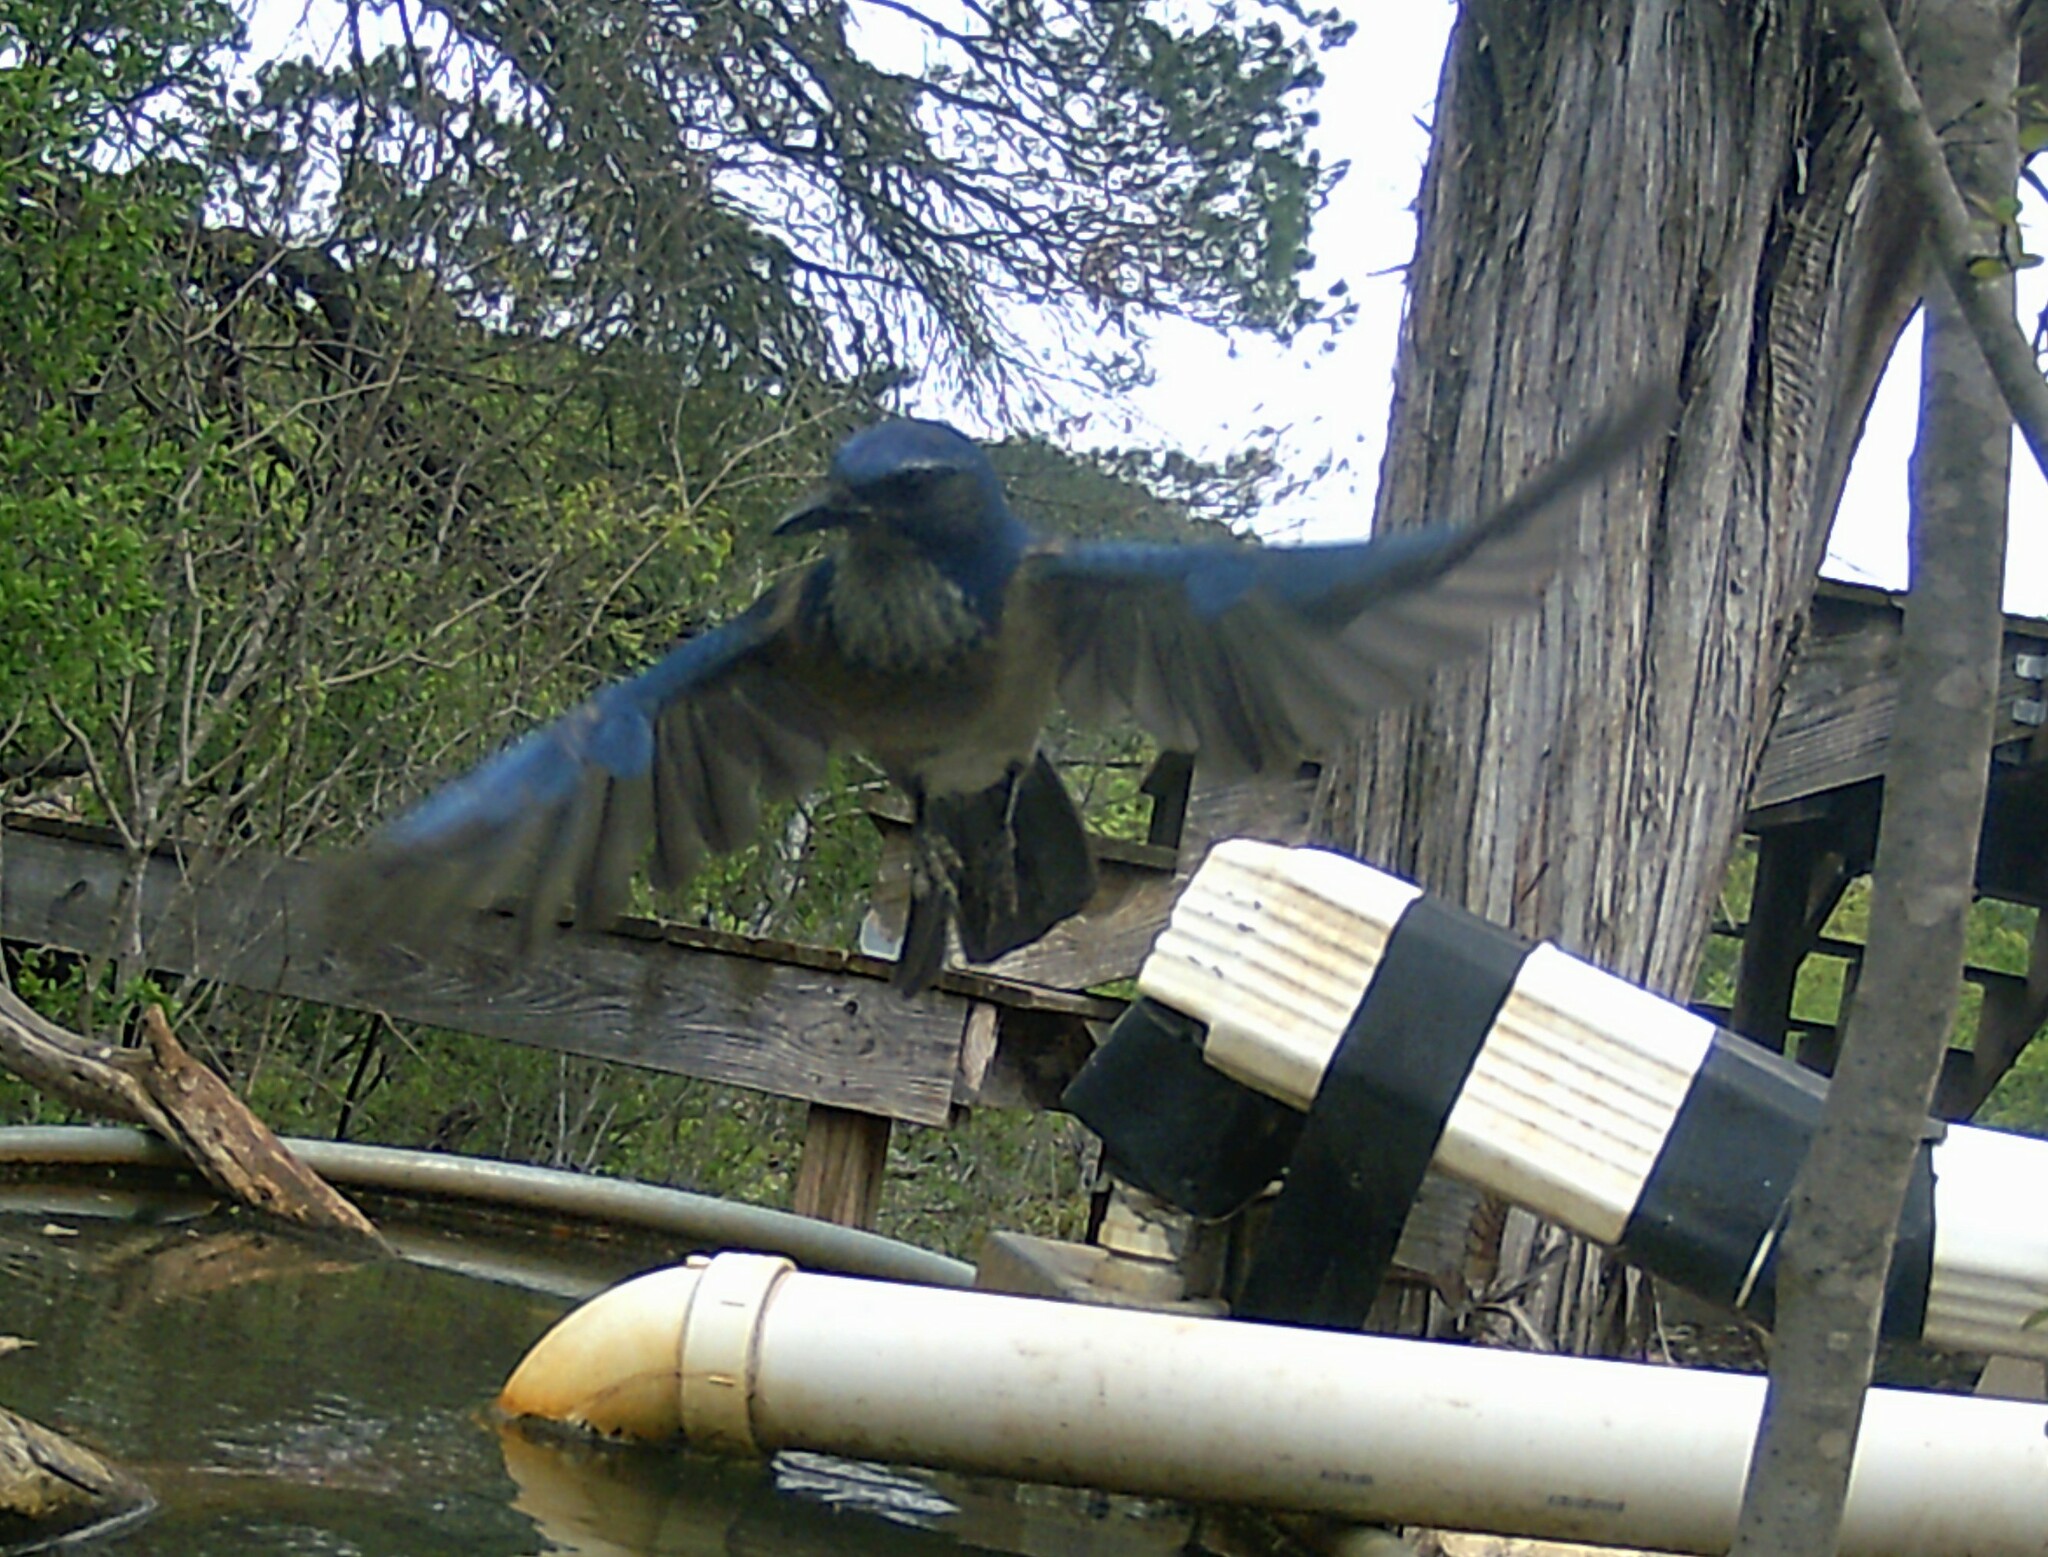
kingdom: Animalia
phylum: Chordata
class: Aves
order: Passeriformes
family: Corvidae
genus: Aphelocoma
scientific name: Aphelocoma woodhouseii
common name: Woodhouse's scrub-jay
